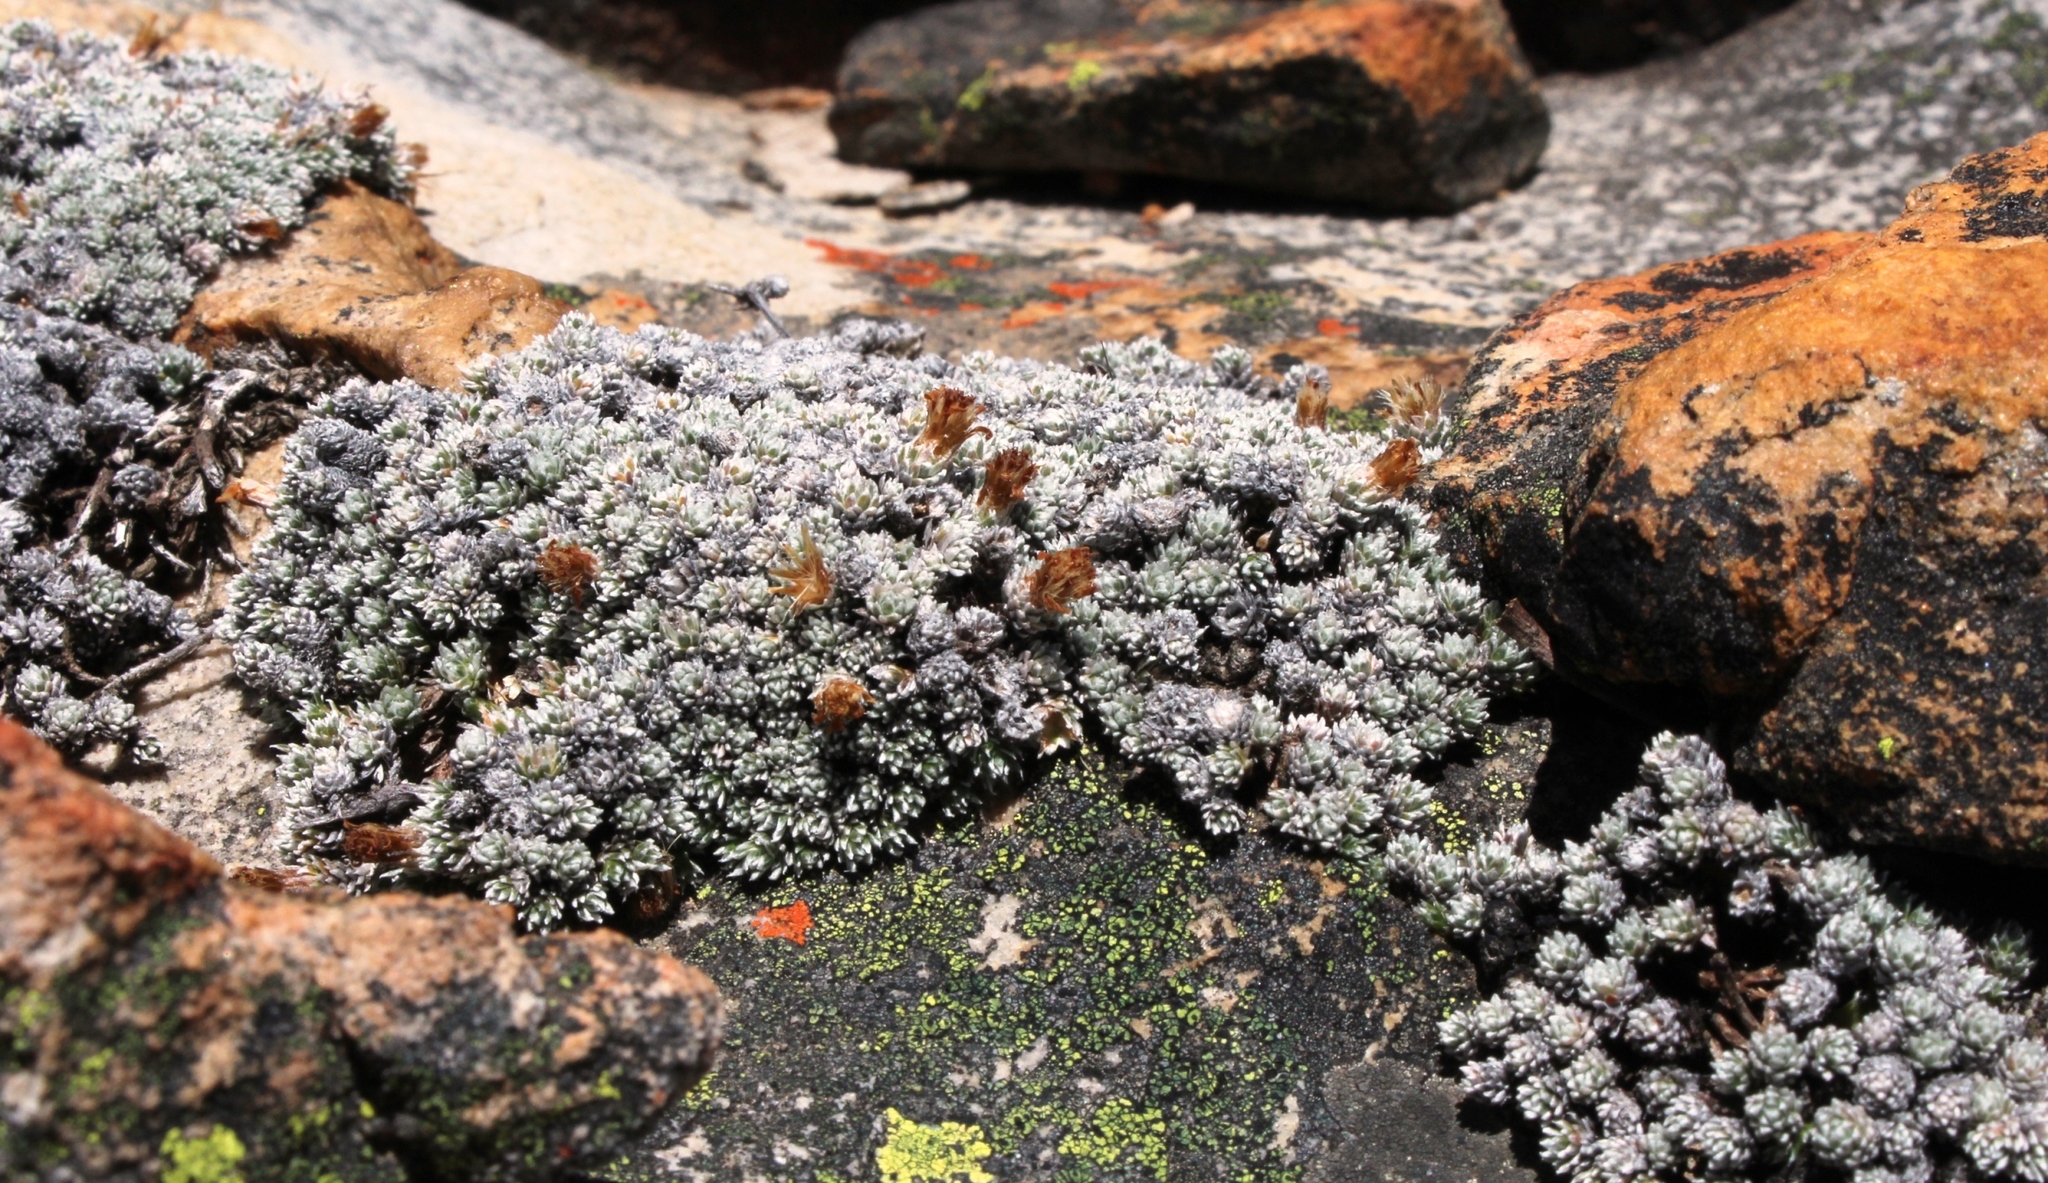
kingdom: Plantae
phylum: Tracheophyta
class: Magnoliopsida
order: Asterales
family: Asteraceae
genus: Muscosomorphe
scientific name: Muscosomorphe aretioides
